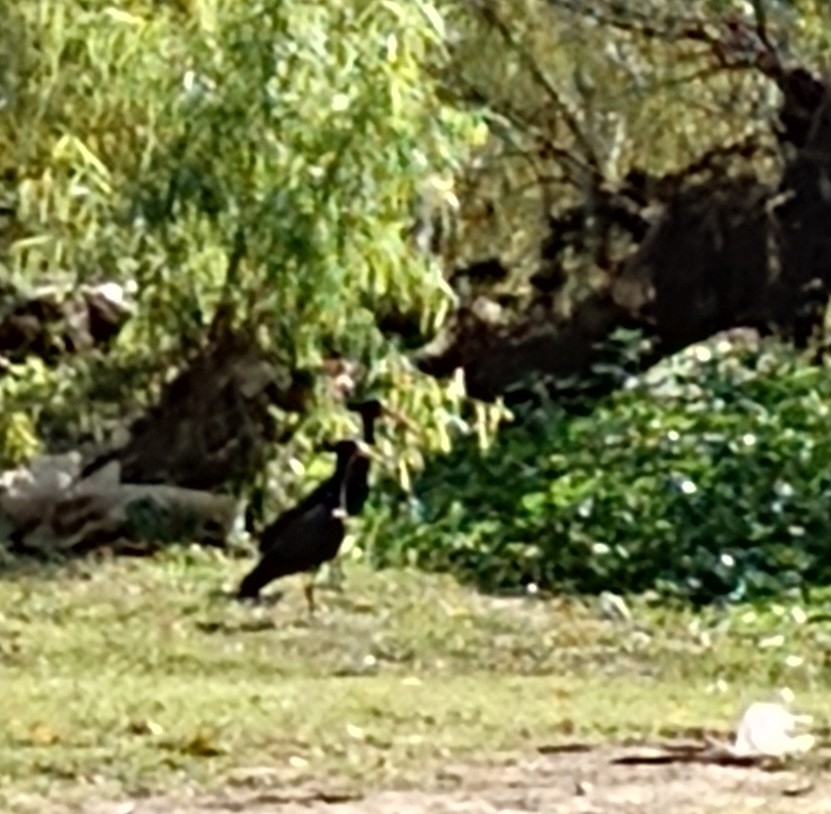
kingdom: Animalia
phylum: Chordata
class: Aves
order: Pelecaniformes
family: Threskiornithidae
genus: Phimosus
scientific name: Phimosus infuscatus
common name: Bare-faced ibis
